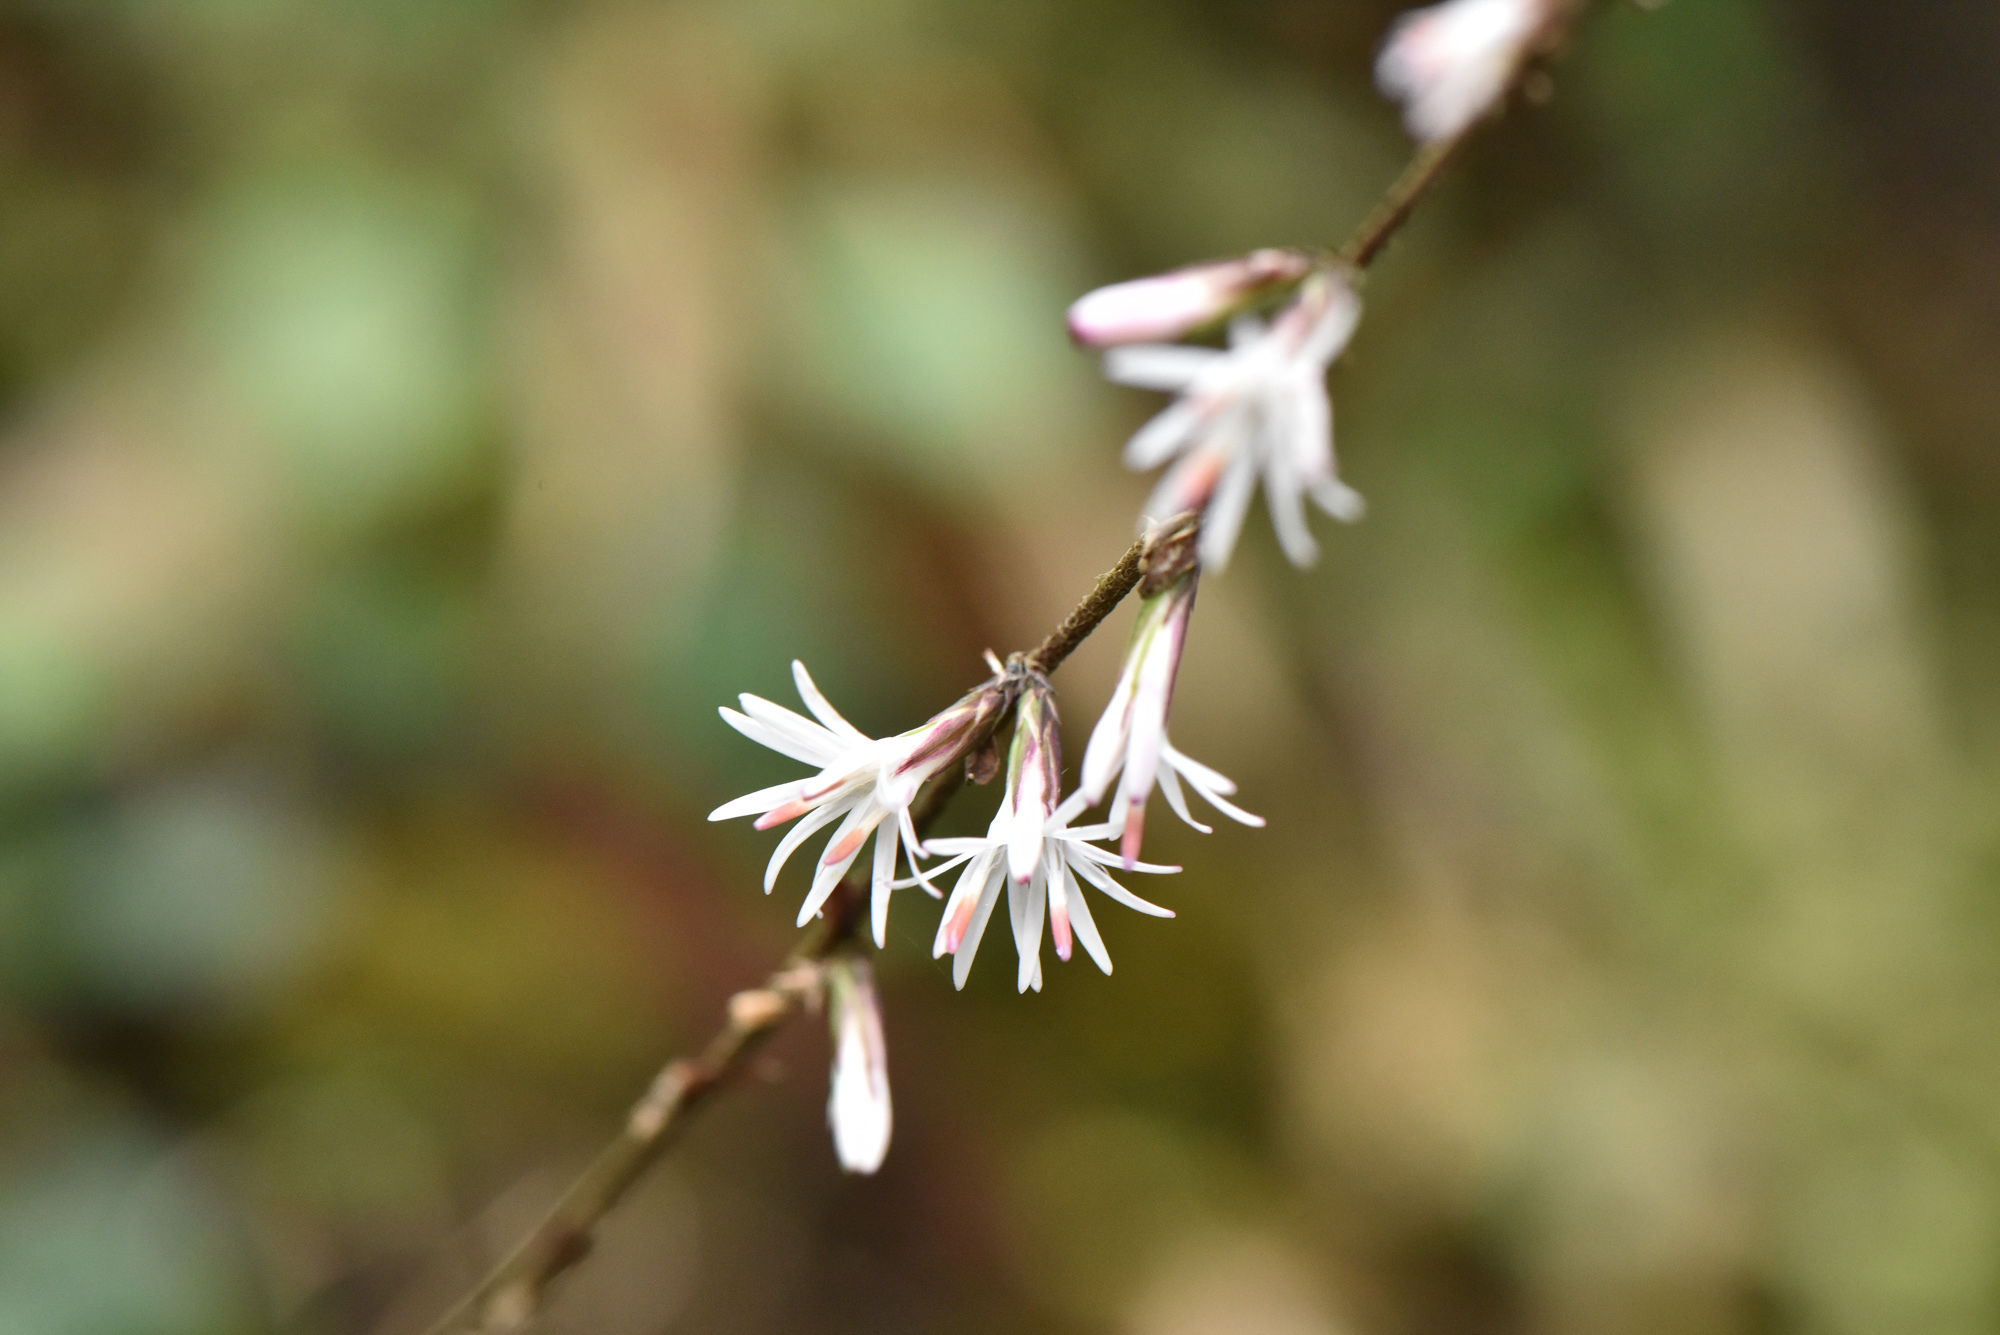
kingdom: Plantae
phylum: Tracheophyta
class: Magnoliopsida
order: Asterales
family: Asteraceae
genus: Ainsliaea
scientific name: Ainsliaea henryi
